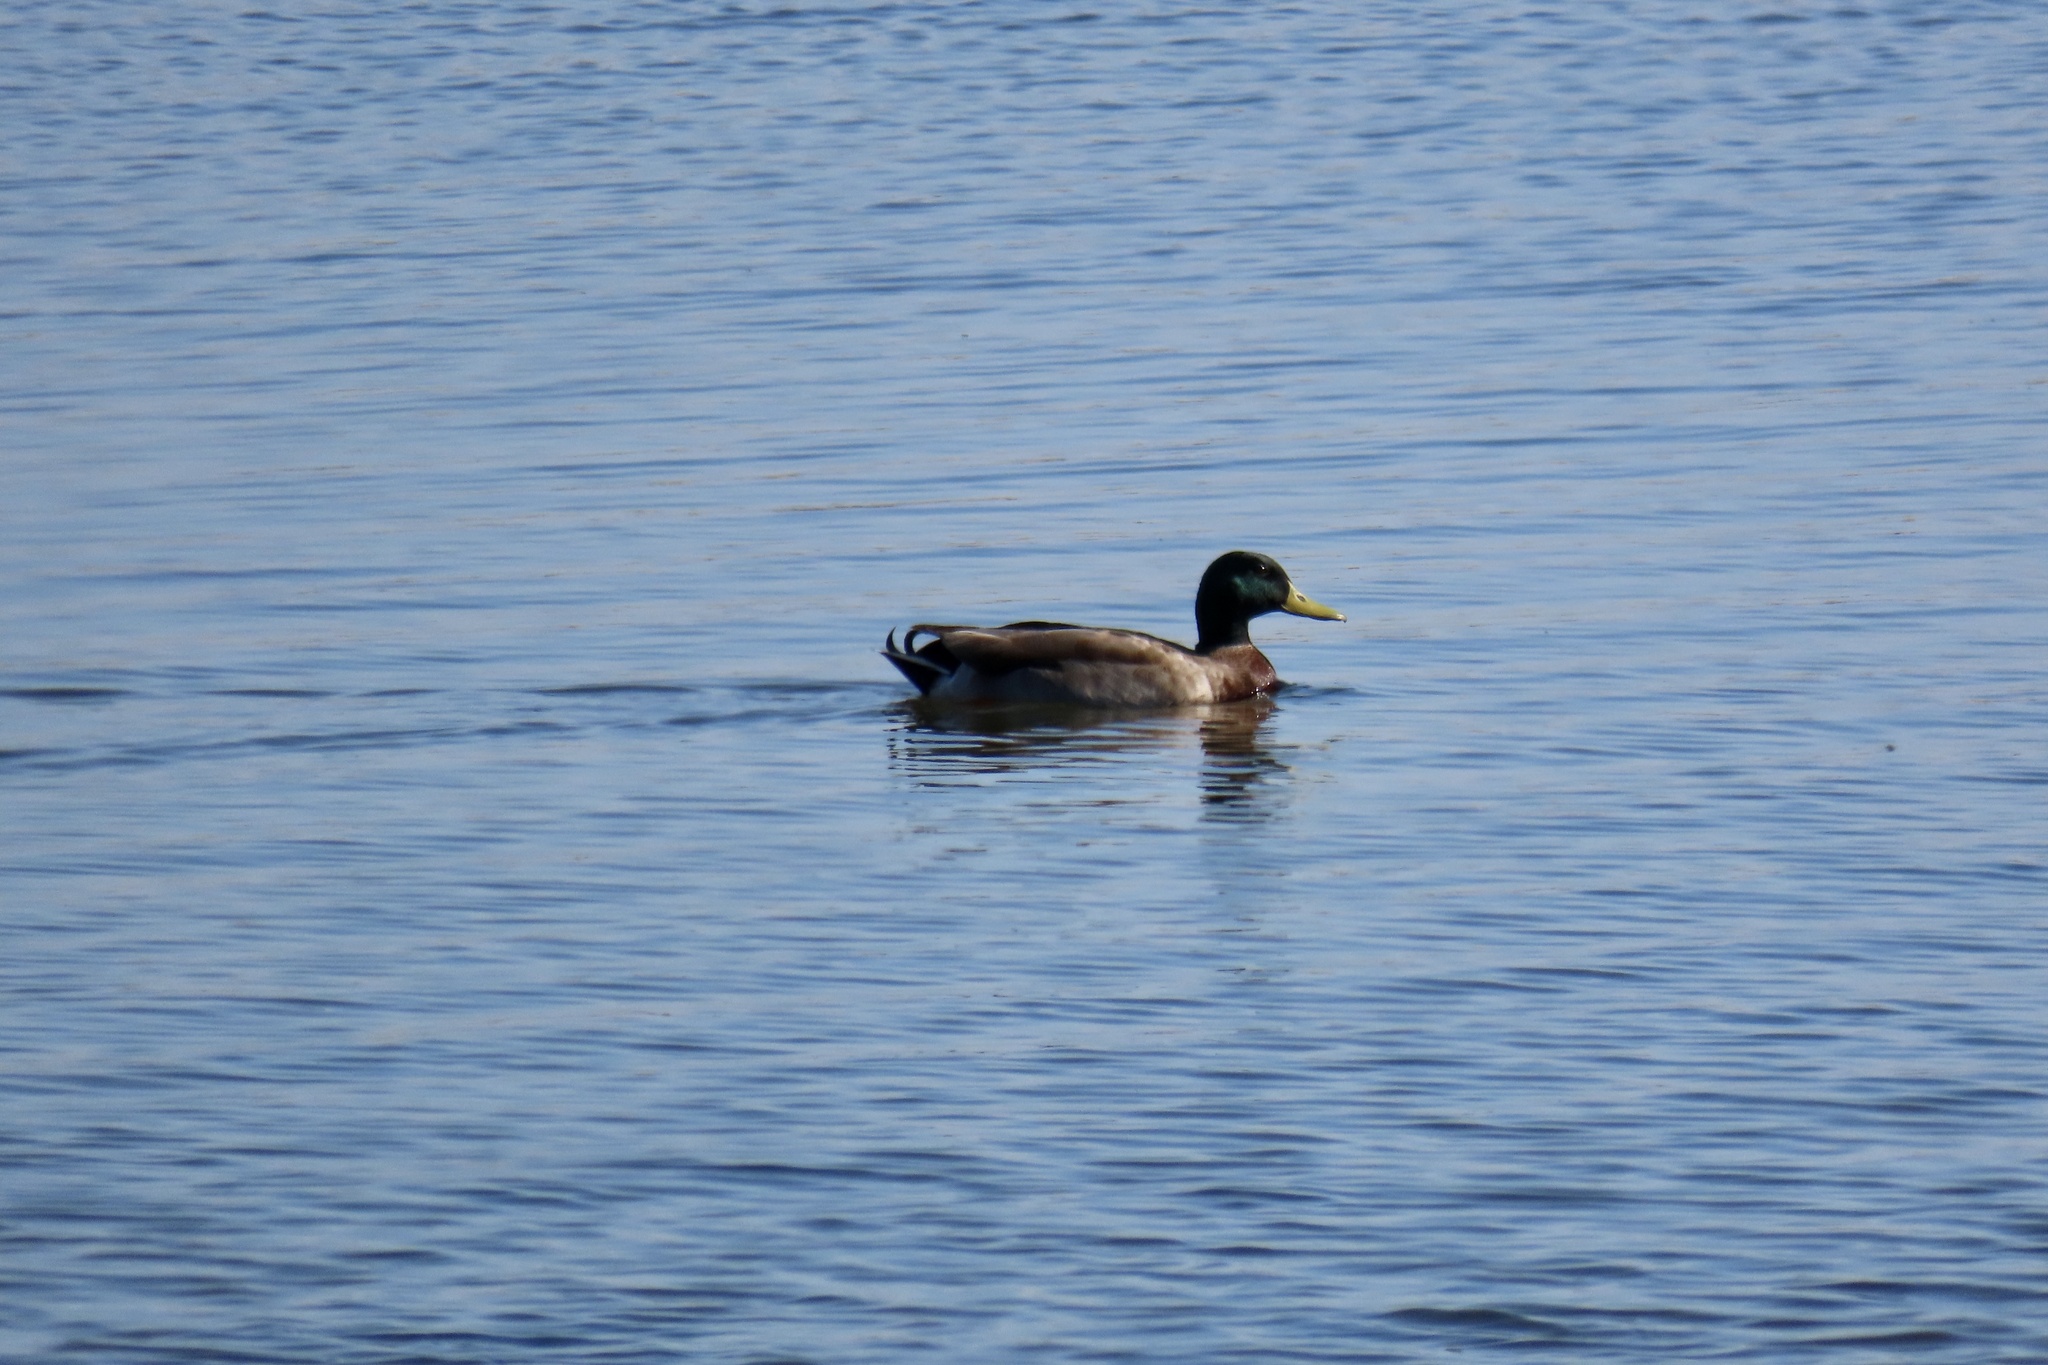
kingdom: Animalia
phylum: Chordata
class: Aves
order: Anseriformes
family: Anatidae
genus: Anas
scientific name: Anas platyrhynchos
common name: Mallard
